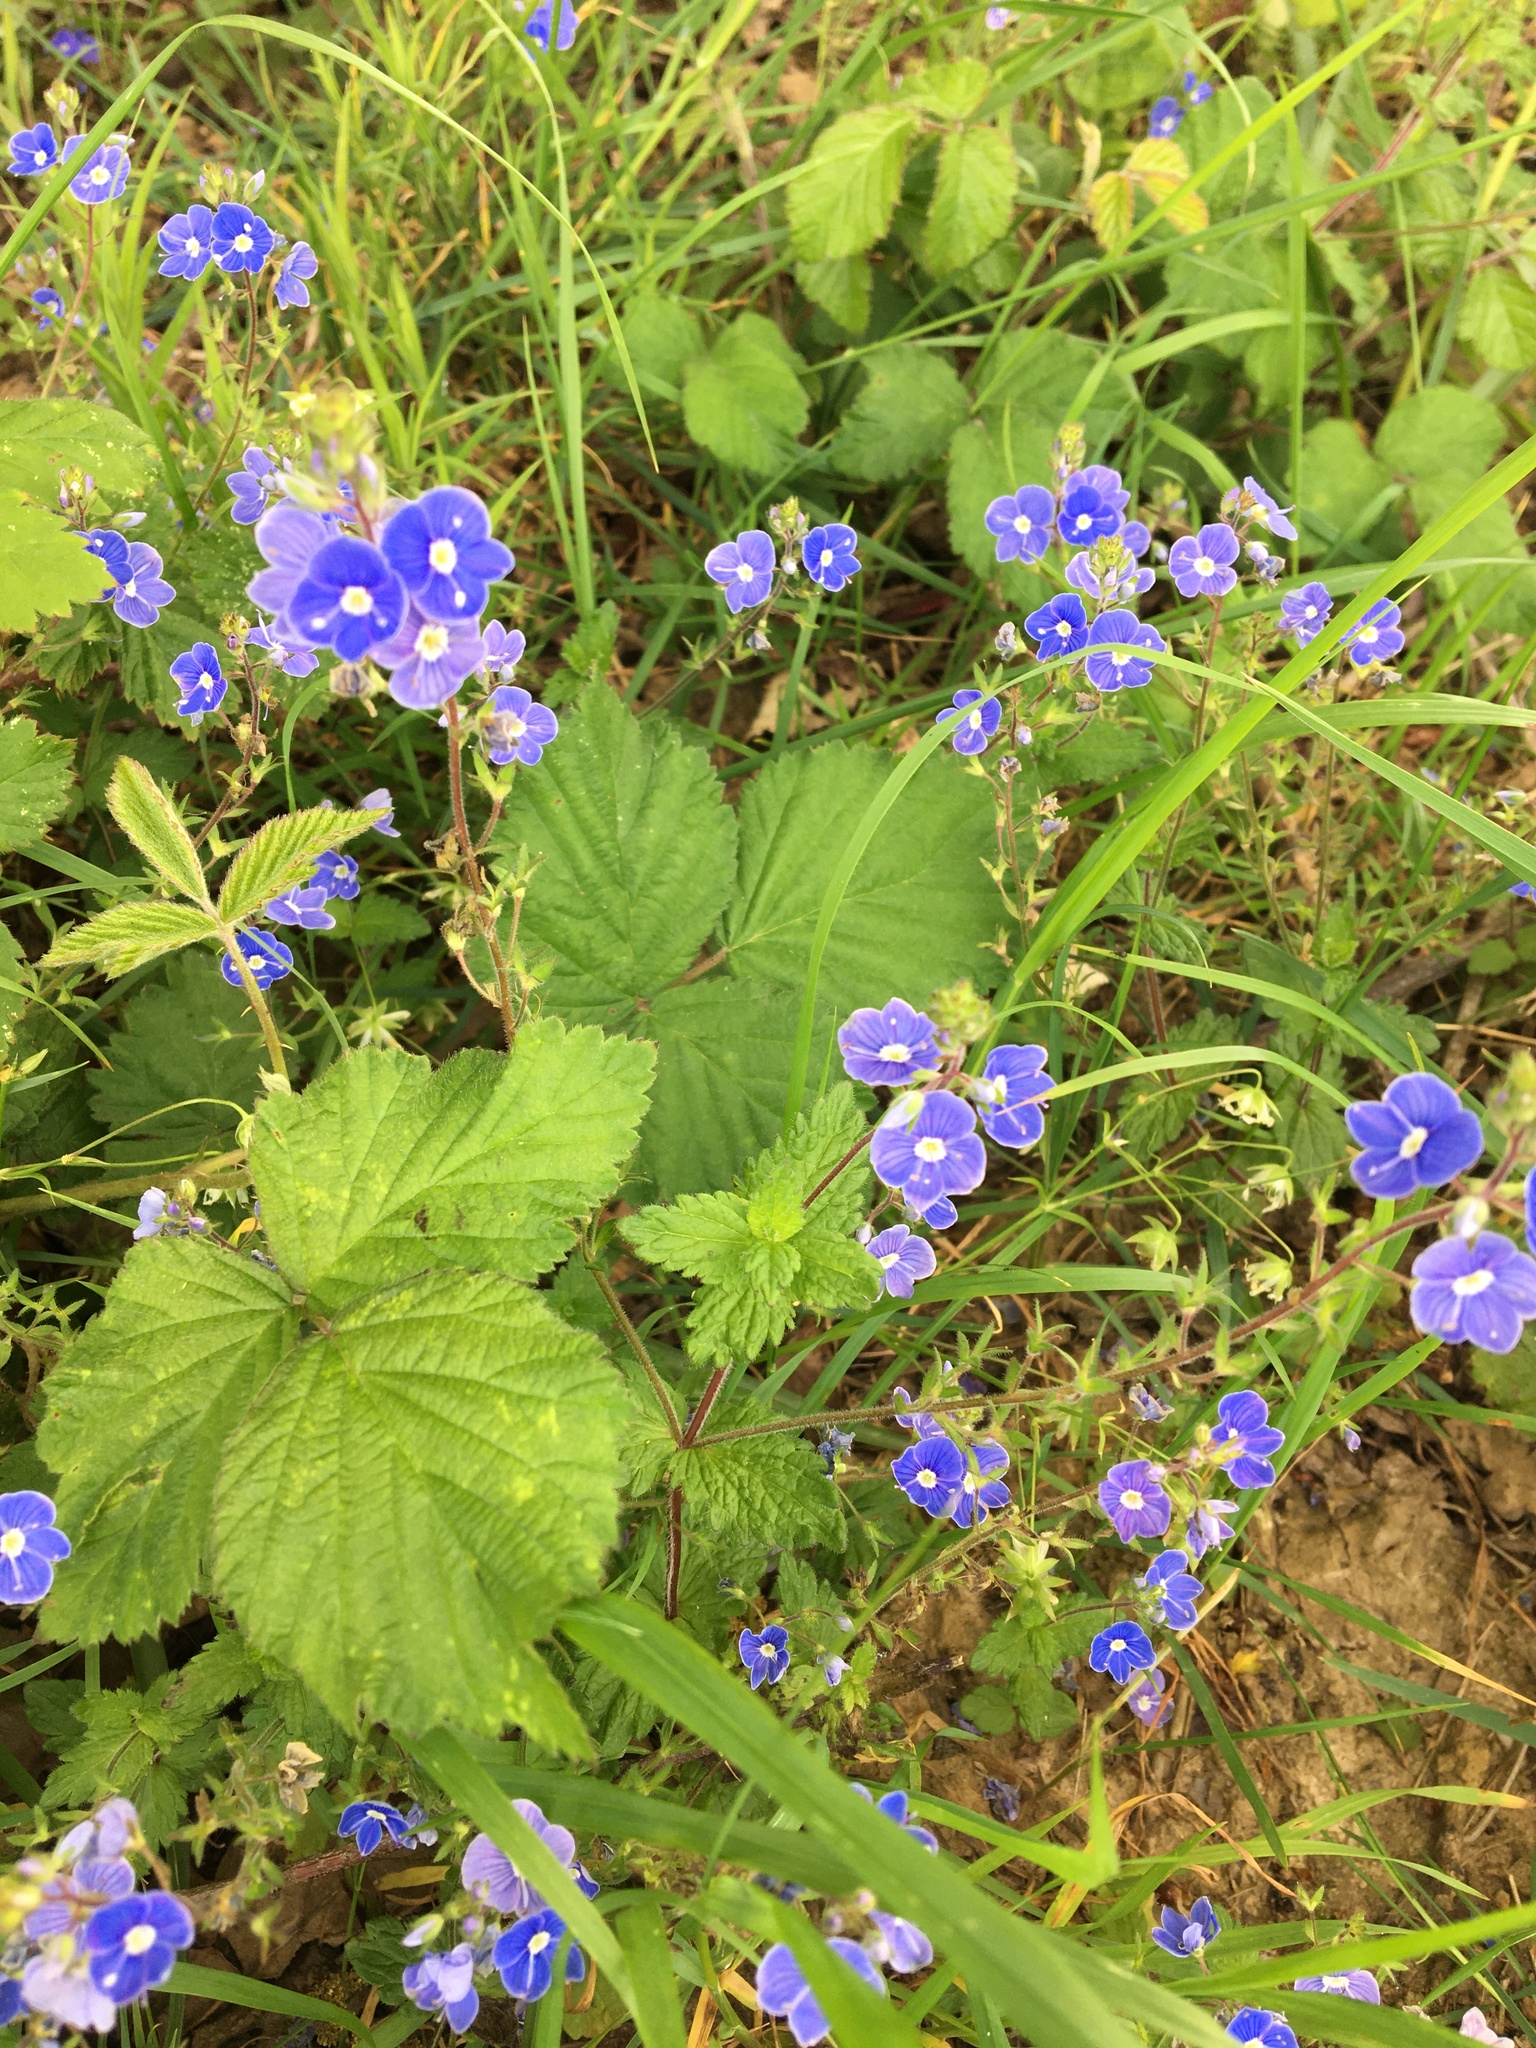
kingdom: Plantae
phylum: Tracheophyta
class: Magnoliopsida
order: Lamiales
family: Plantaginaceae
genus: Veronica
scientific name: Veronica chamaedrys
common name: Germander speedwell
